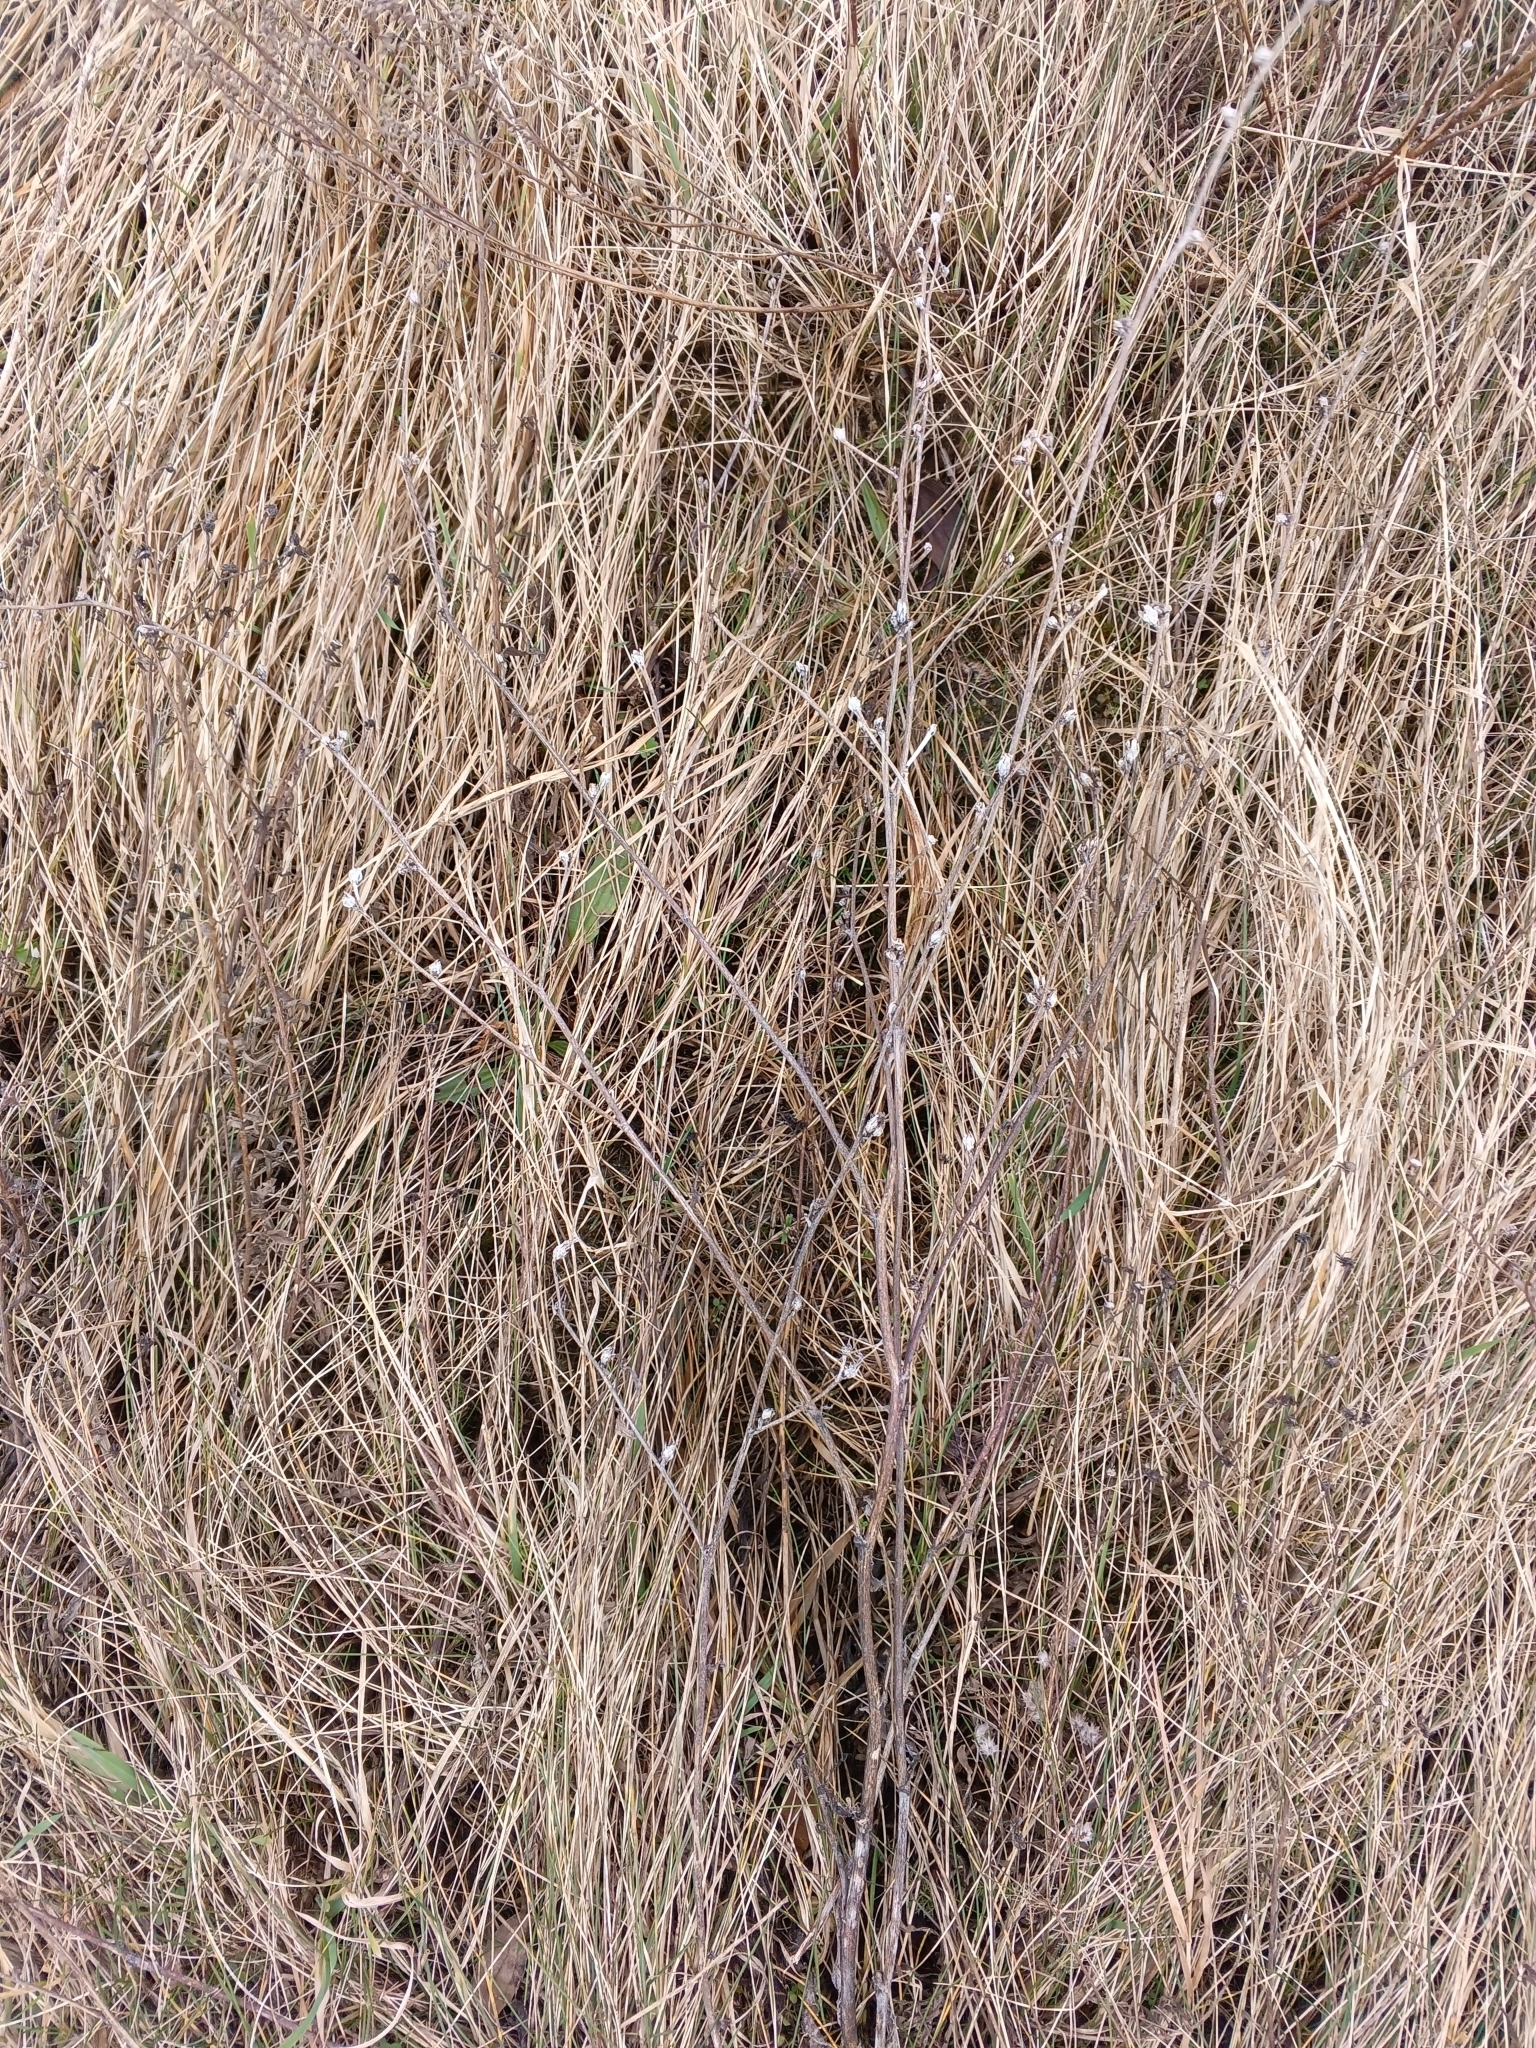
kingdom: Plantae
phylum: Tracheophyta
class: Magnoliopsida
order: Asterales
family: Asteraceae
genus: Cichorium
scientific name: Cichorium intybus
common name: Chicory
